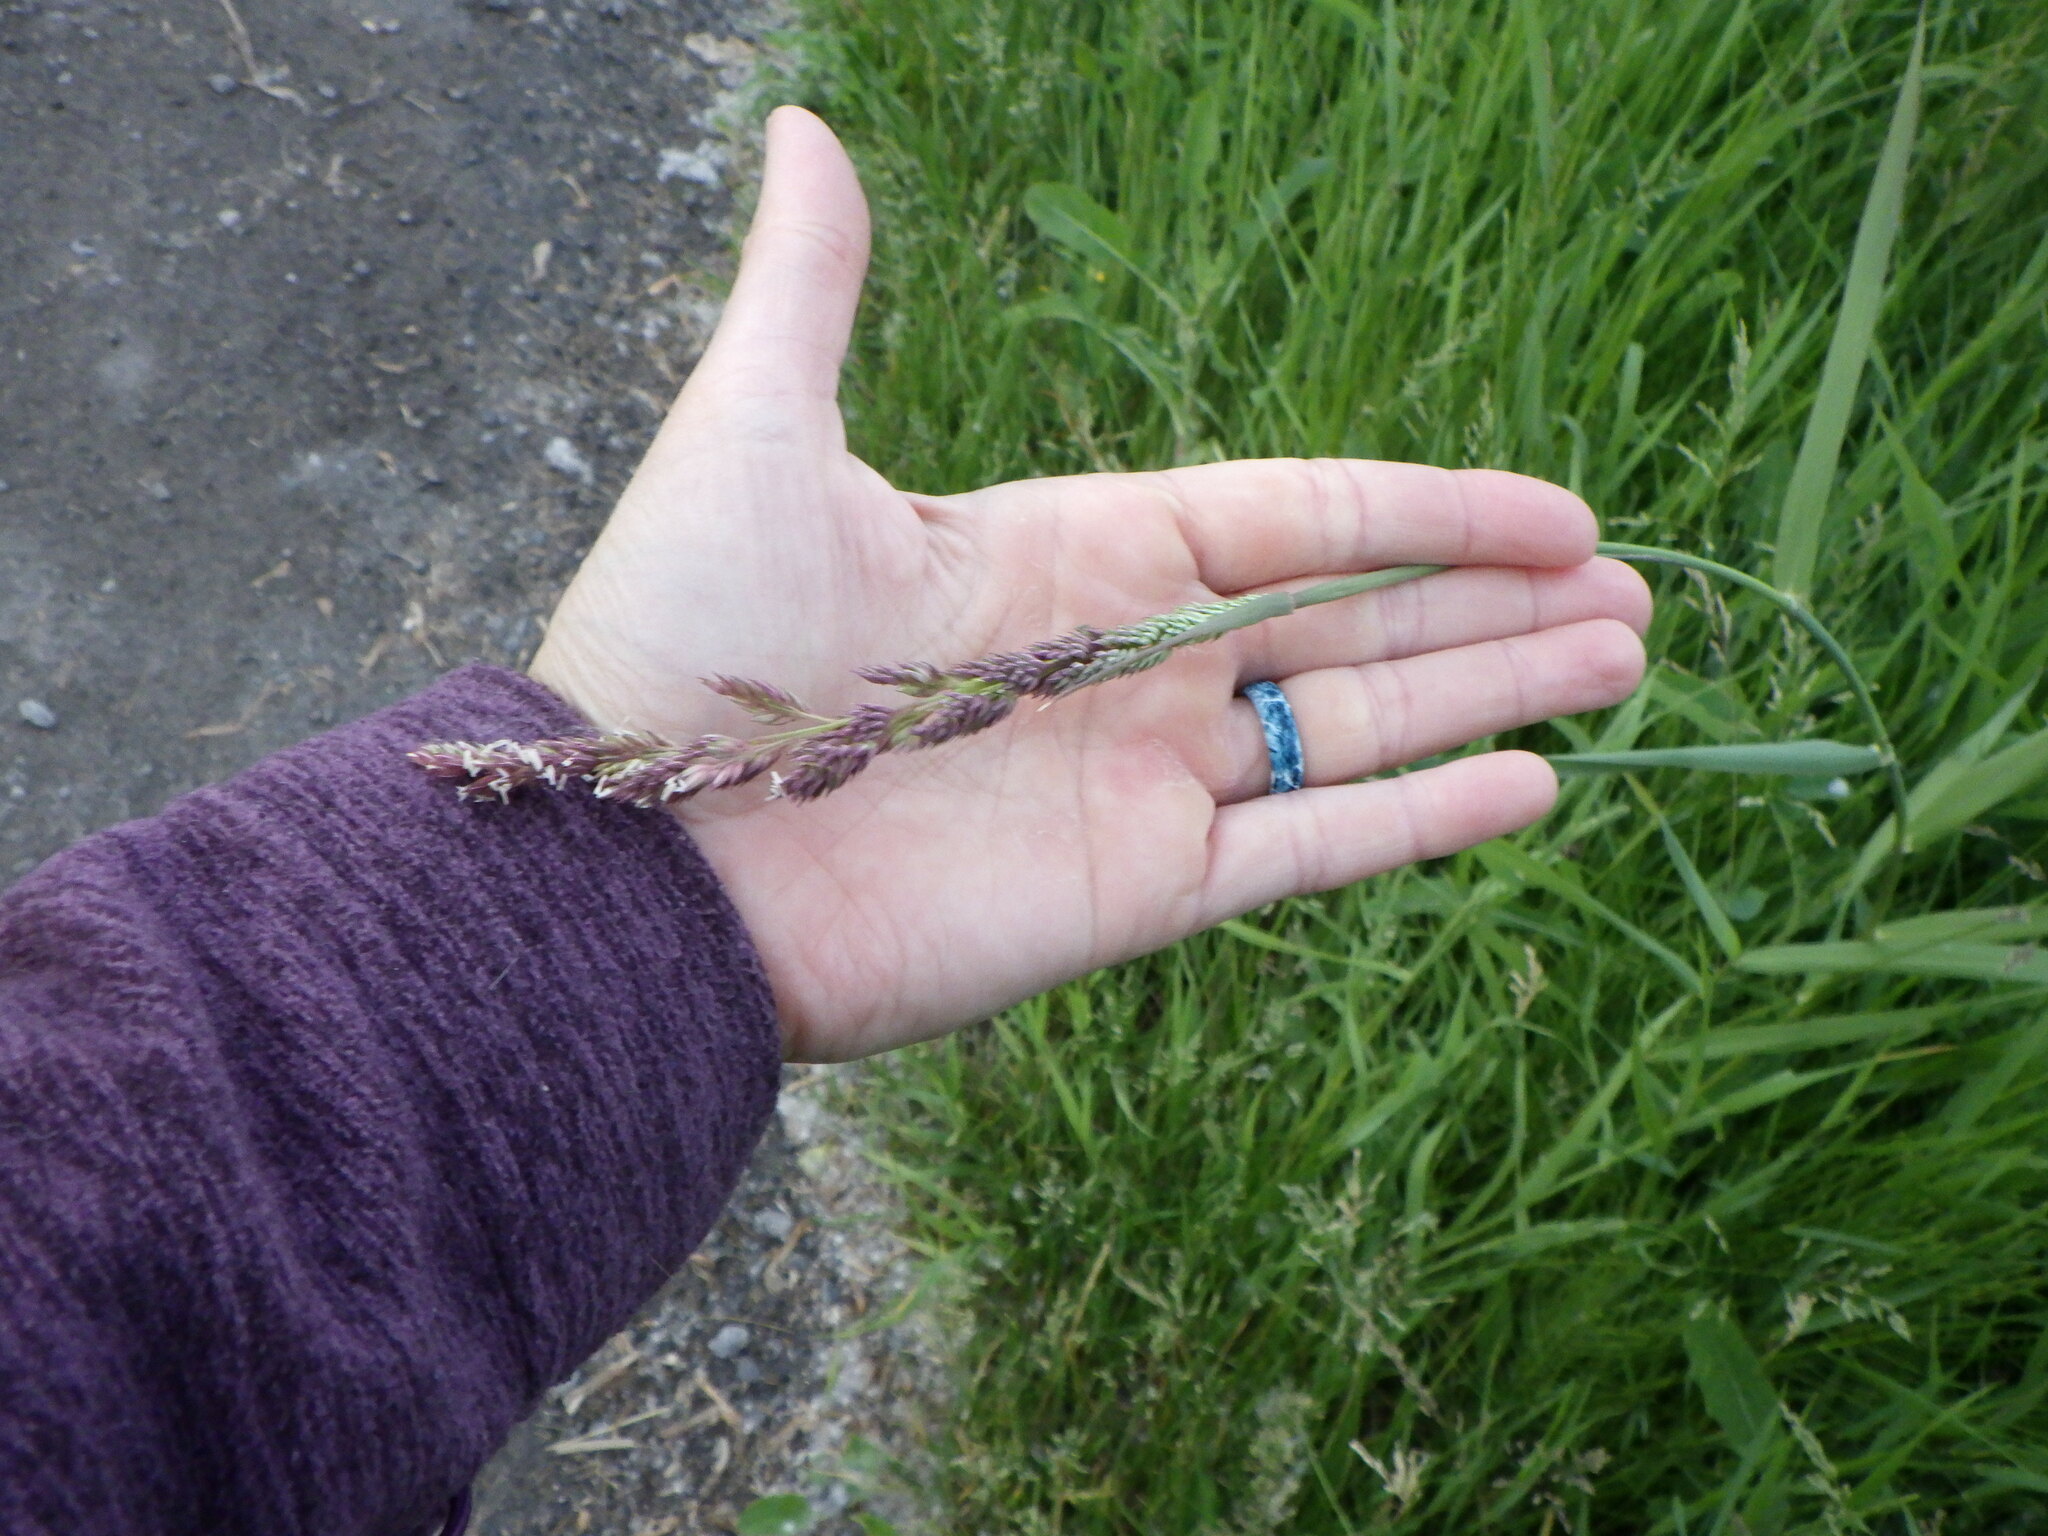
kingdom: Plantae
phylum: Tracheophyta
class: Liliopsida
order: Poales
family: Poaceae
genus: Phalaris
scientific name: Phalaris arundinacea
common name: Reed canary-grass
